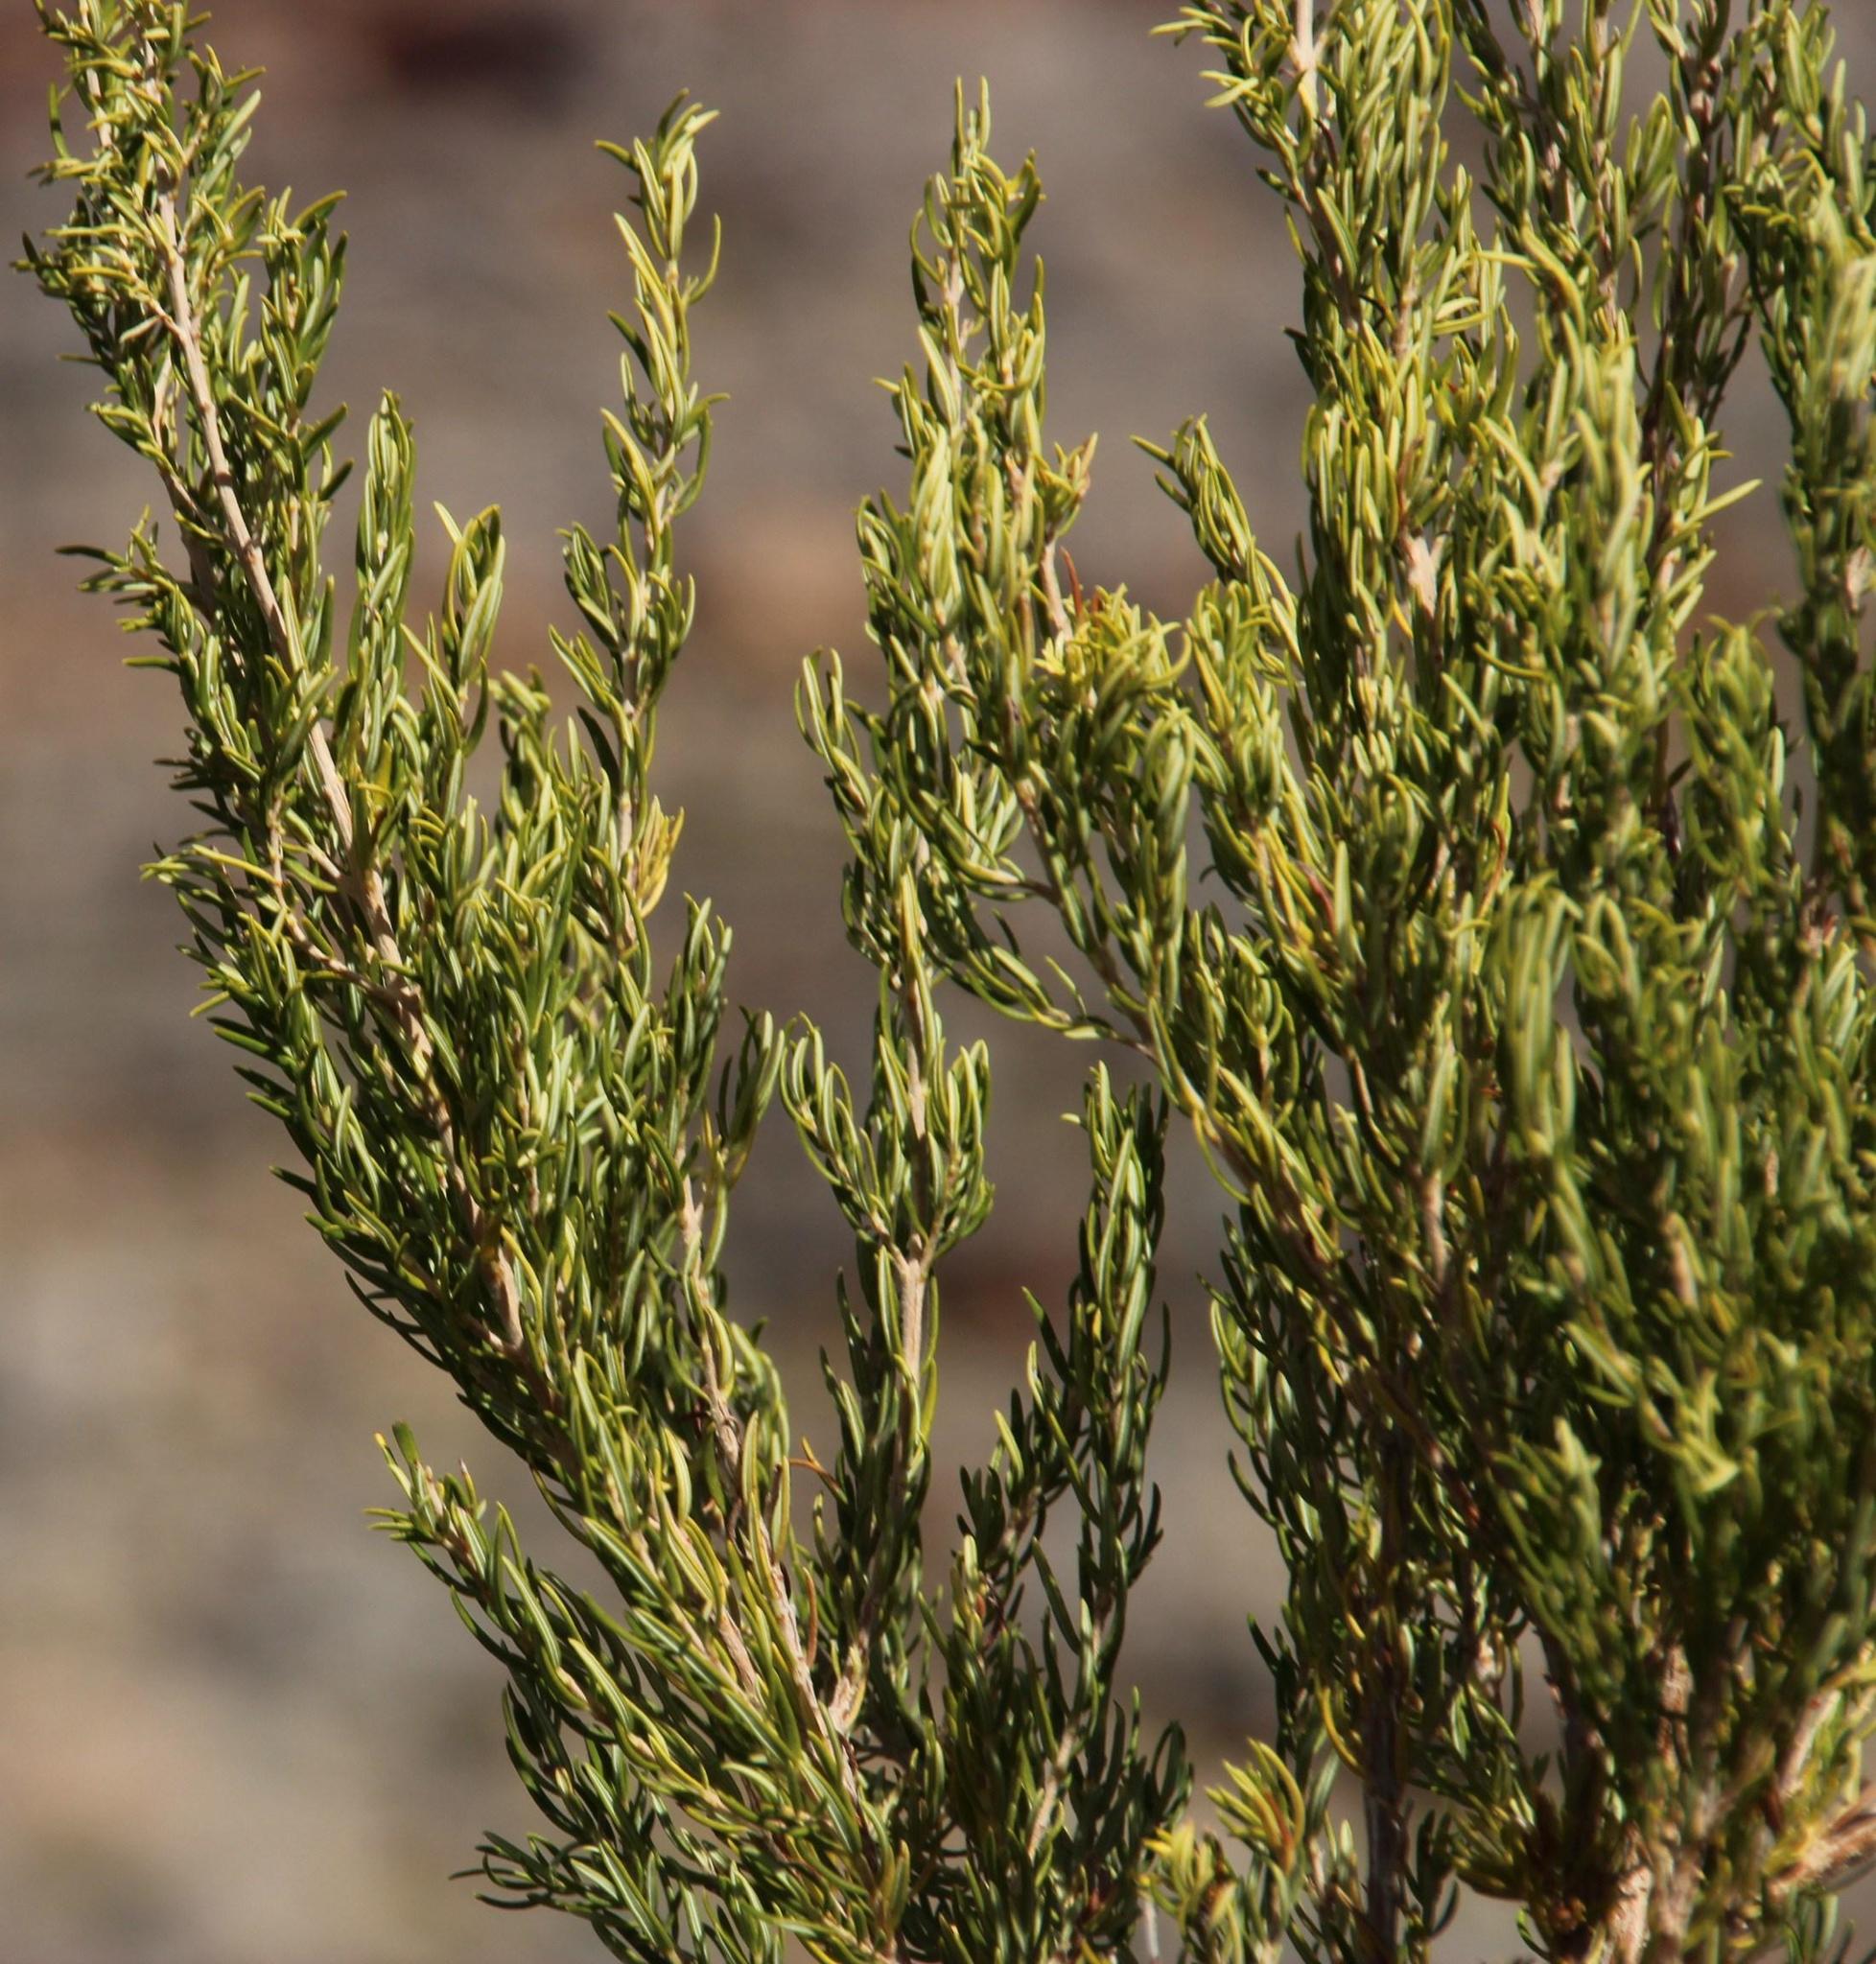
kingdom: Plantae
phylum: Tracheophyta
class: Magnoliopsida
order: Ericales
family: Ericaceae
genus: Erica
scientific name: Erica caffra
